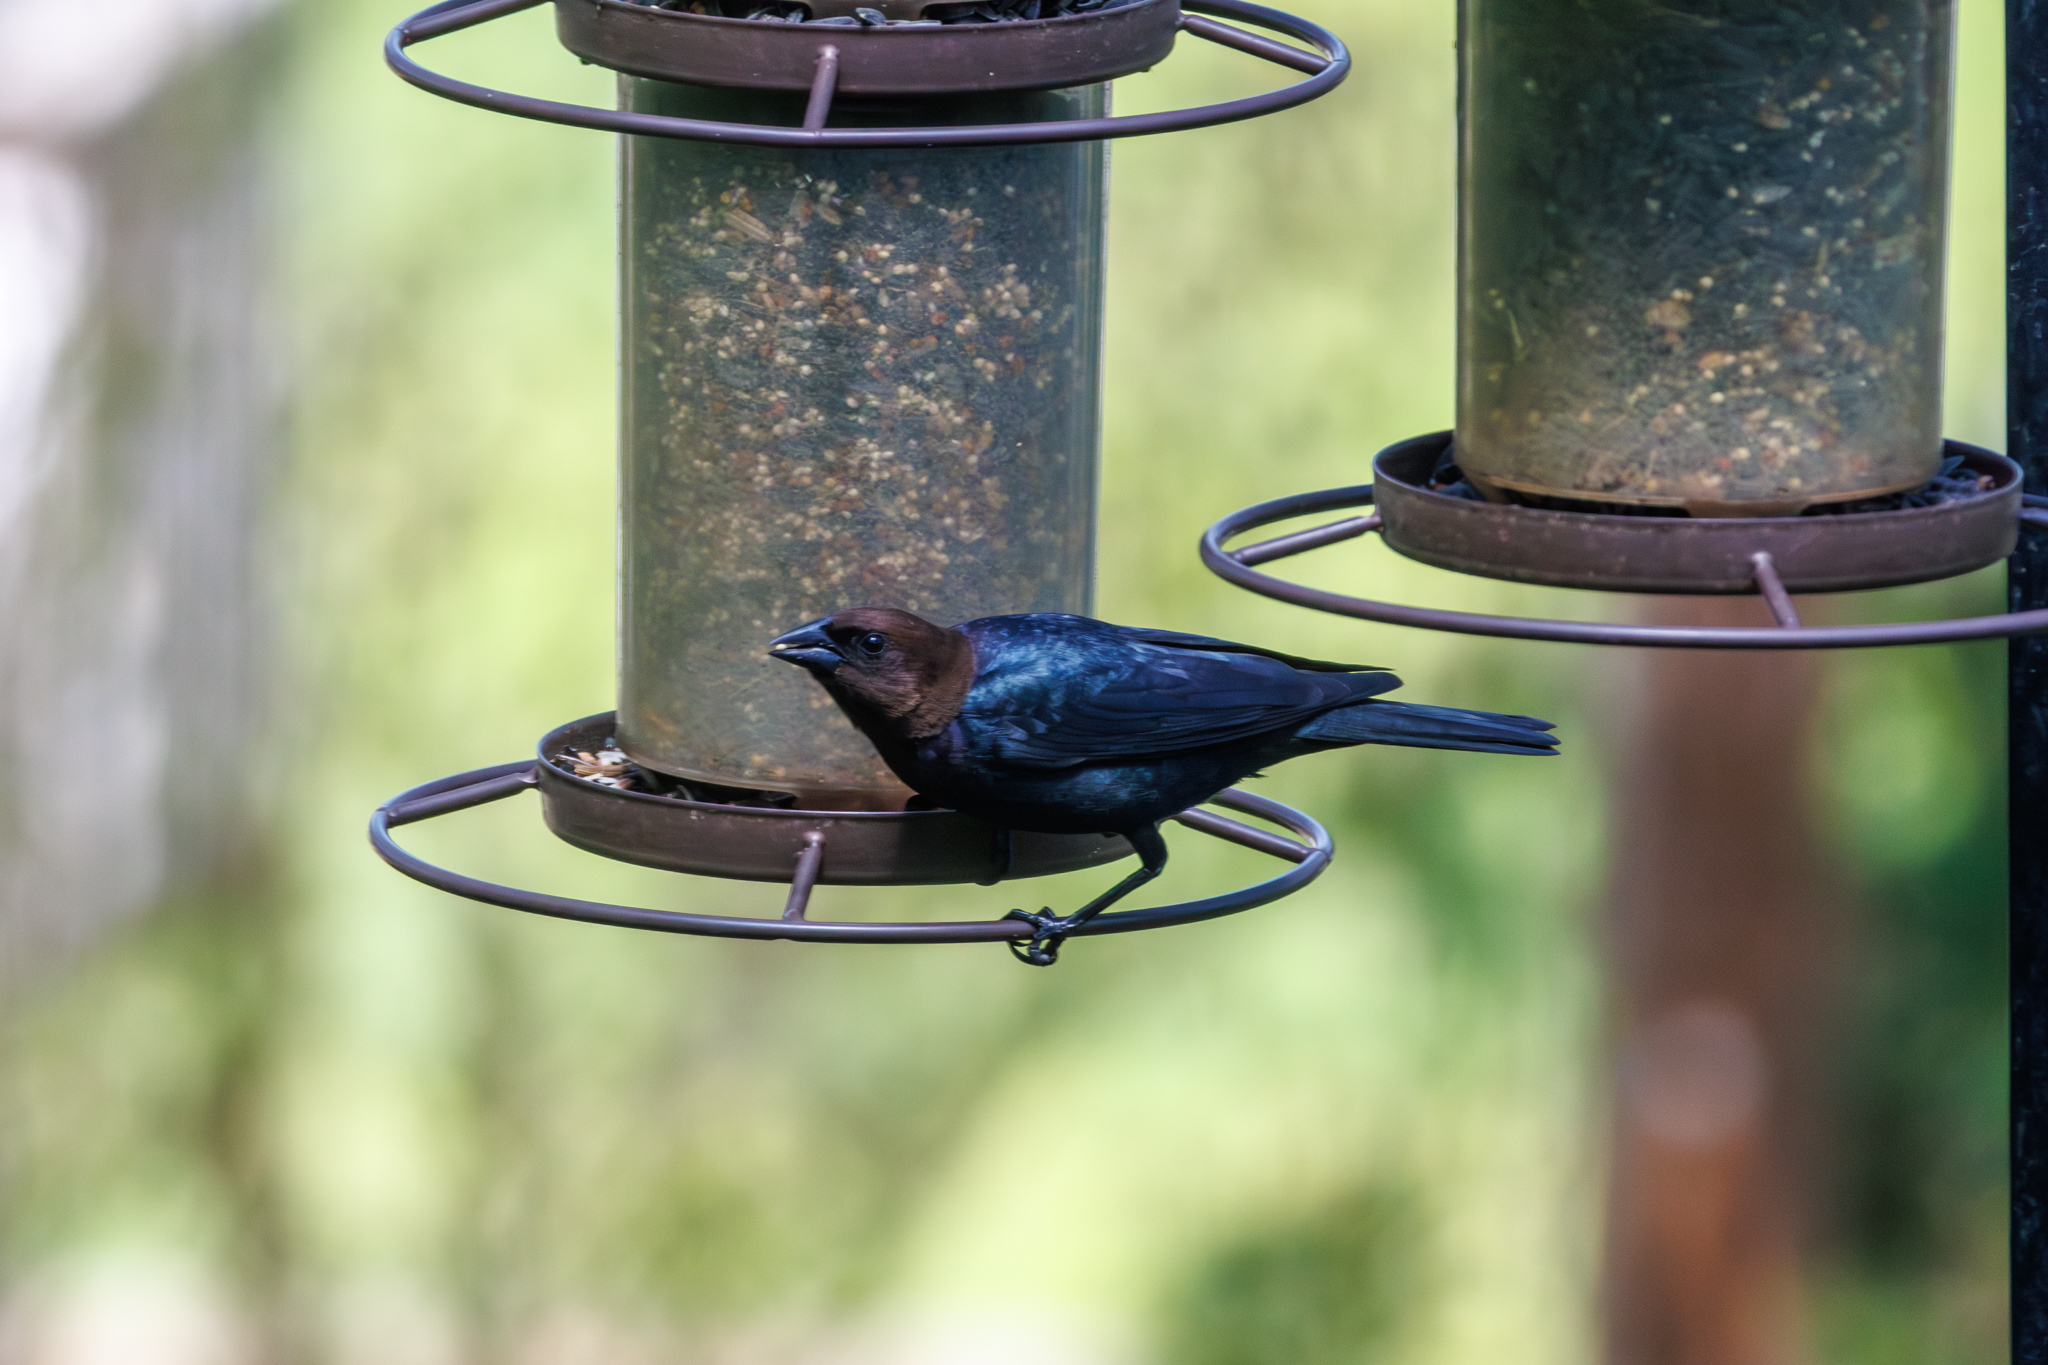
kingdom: Animalia
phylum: Chordata
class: Aves
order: Passeriformes
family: Icteridae
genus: Molothrus
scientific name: Molothrus ater
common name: Brown-headed cowbird
